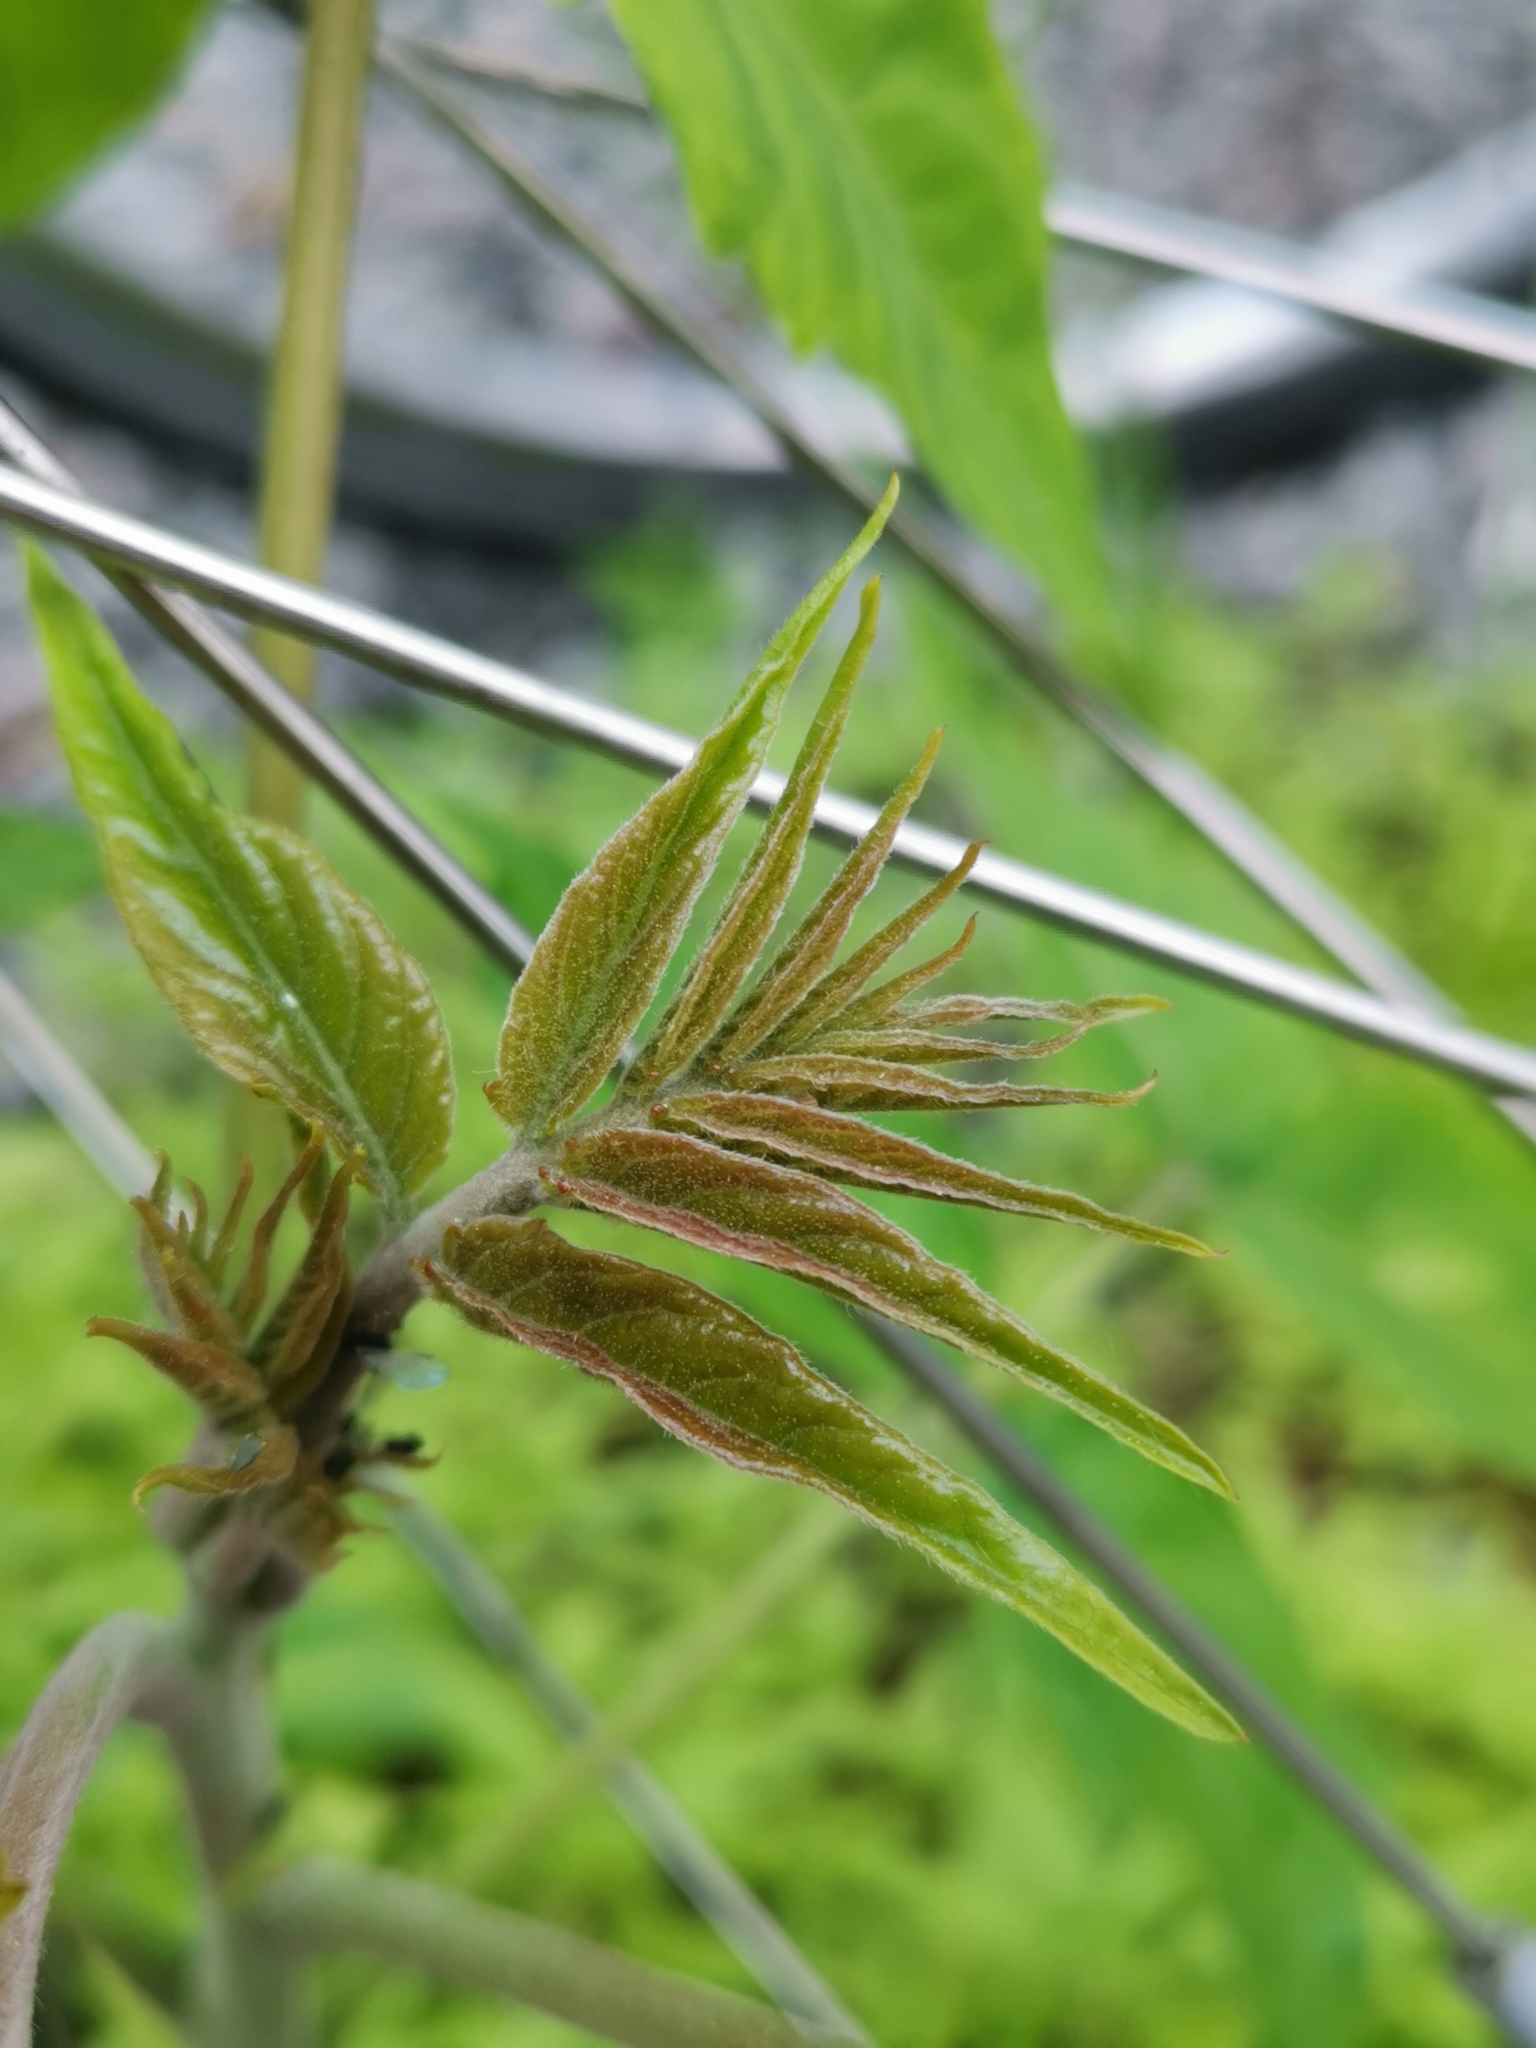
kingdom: Plantae
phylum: Tracheophyta
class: Magnoliopsida
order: Sapindales
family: Simaroubaceae
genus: Ailanthus
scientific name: Ailanthus altissima
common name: Tree-of-heaven
